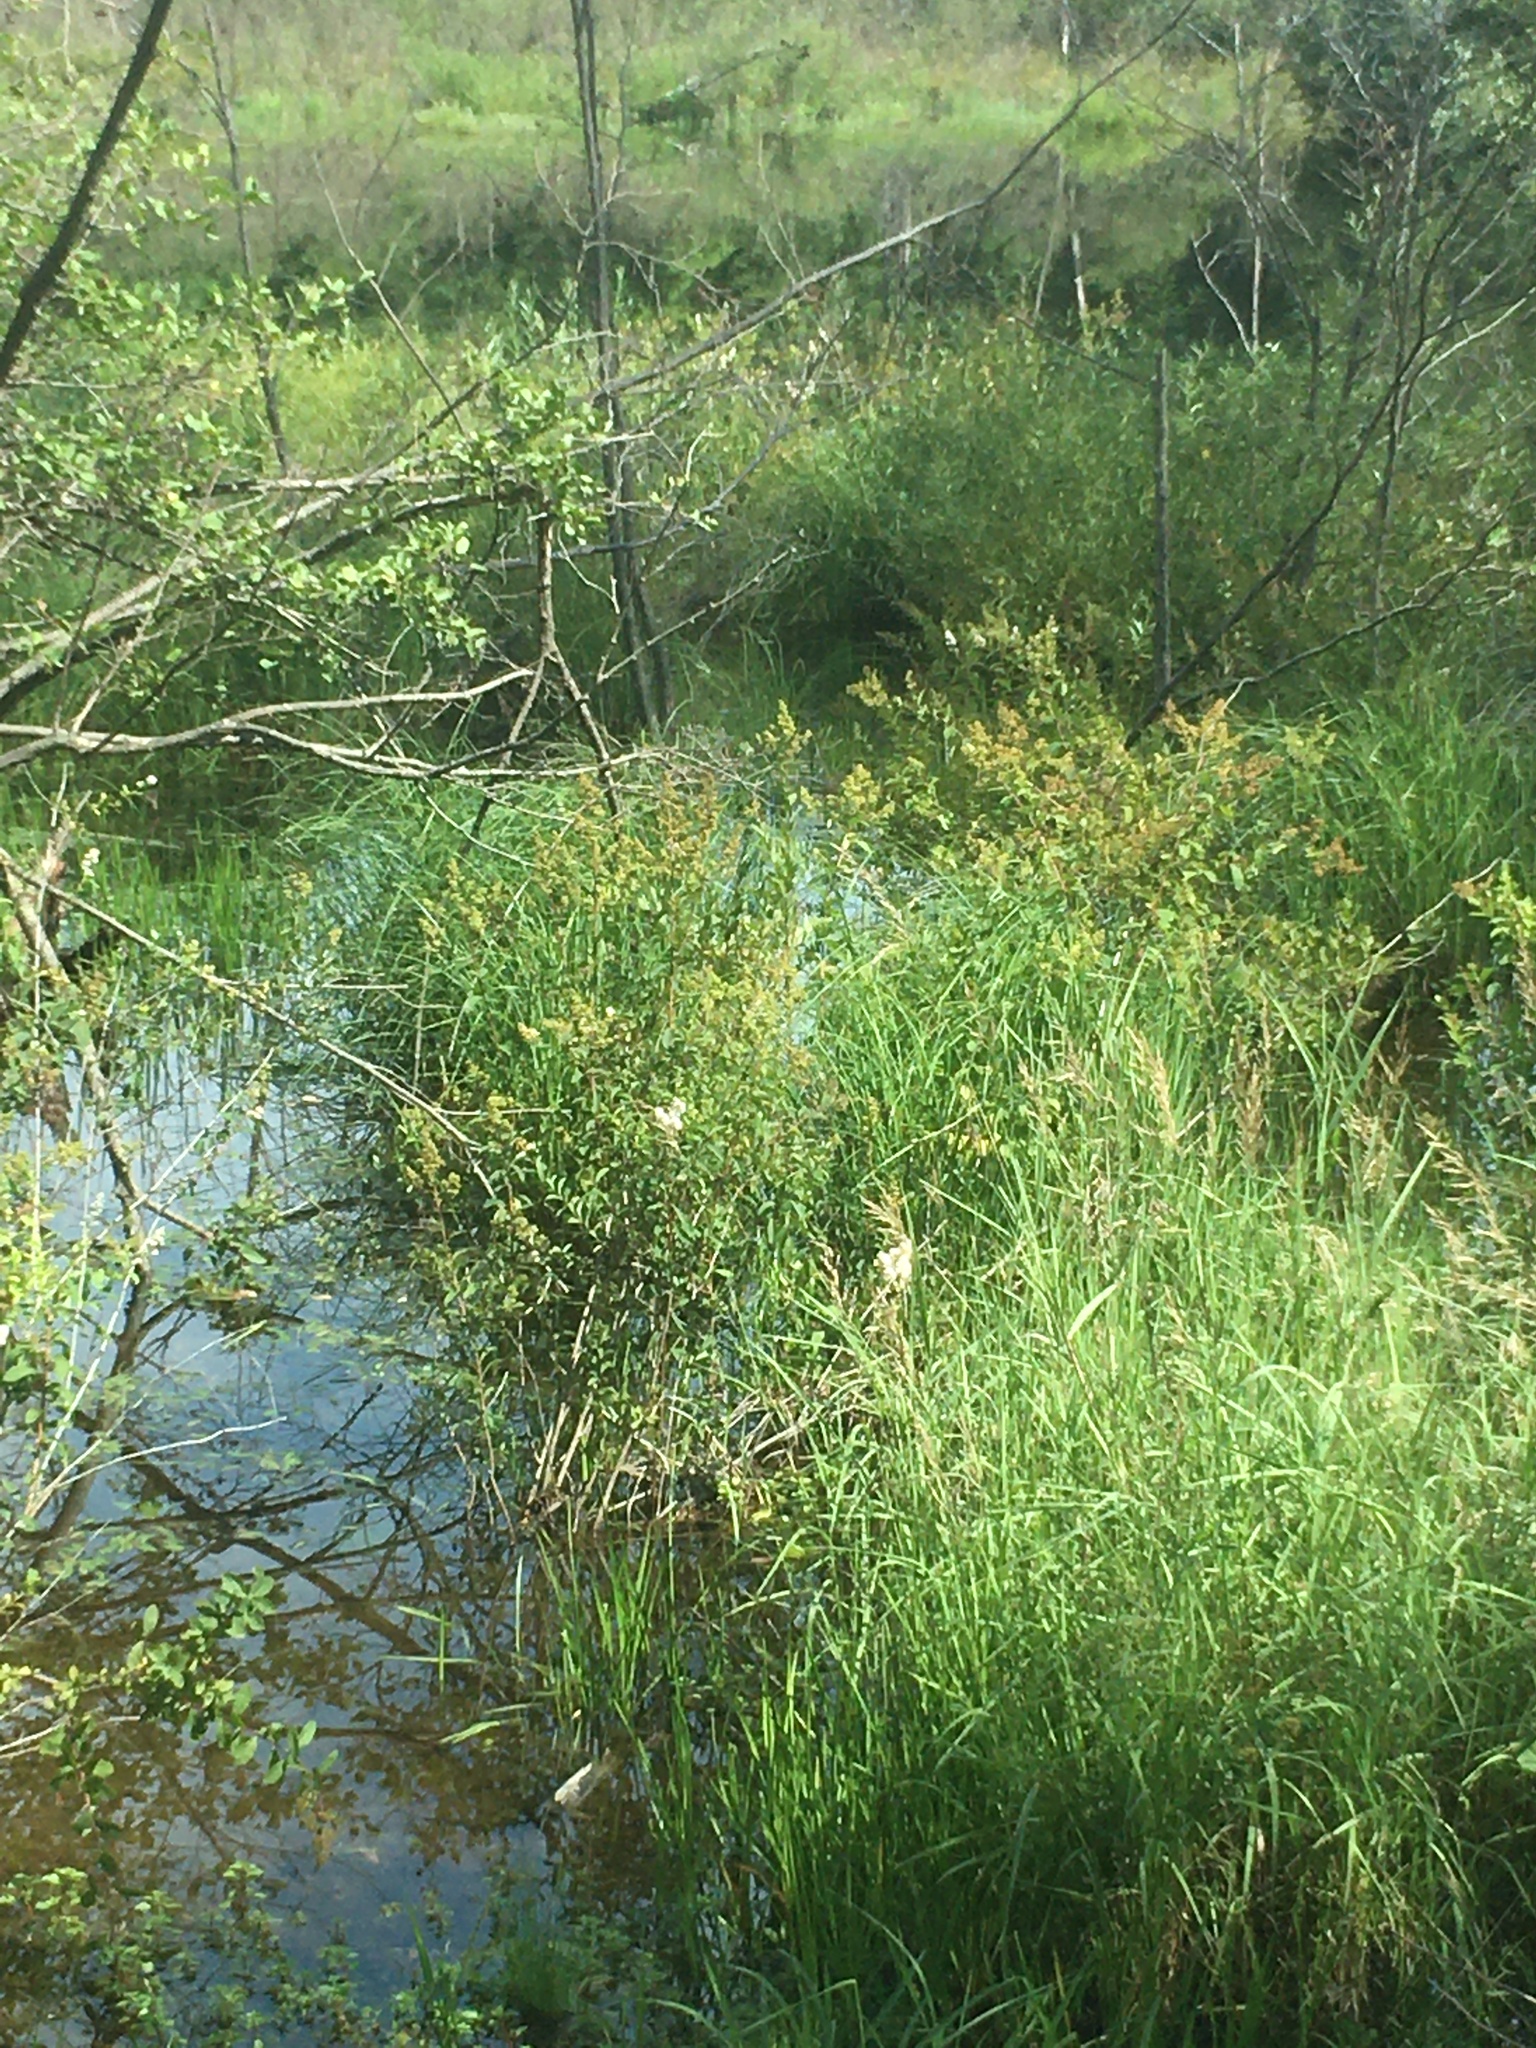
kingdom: Plantae
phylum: Tracheophyta
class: Magnoliopsida
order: Rosales
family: Rosaceae
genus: Spiraea
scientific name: Spiraea alba
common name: Pale bridewort
